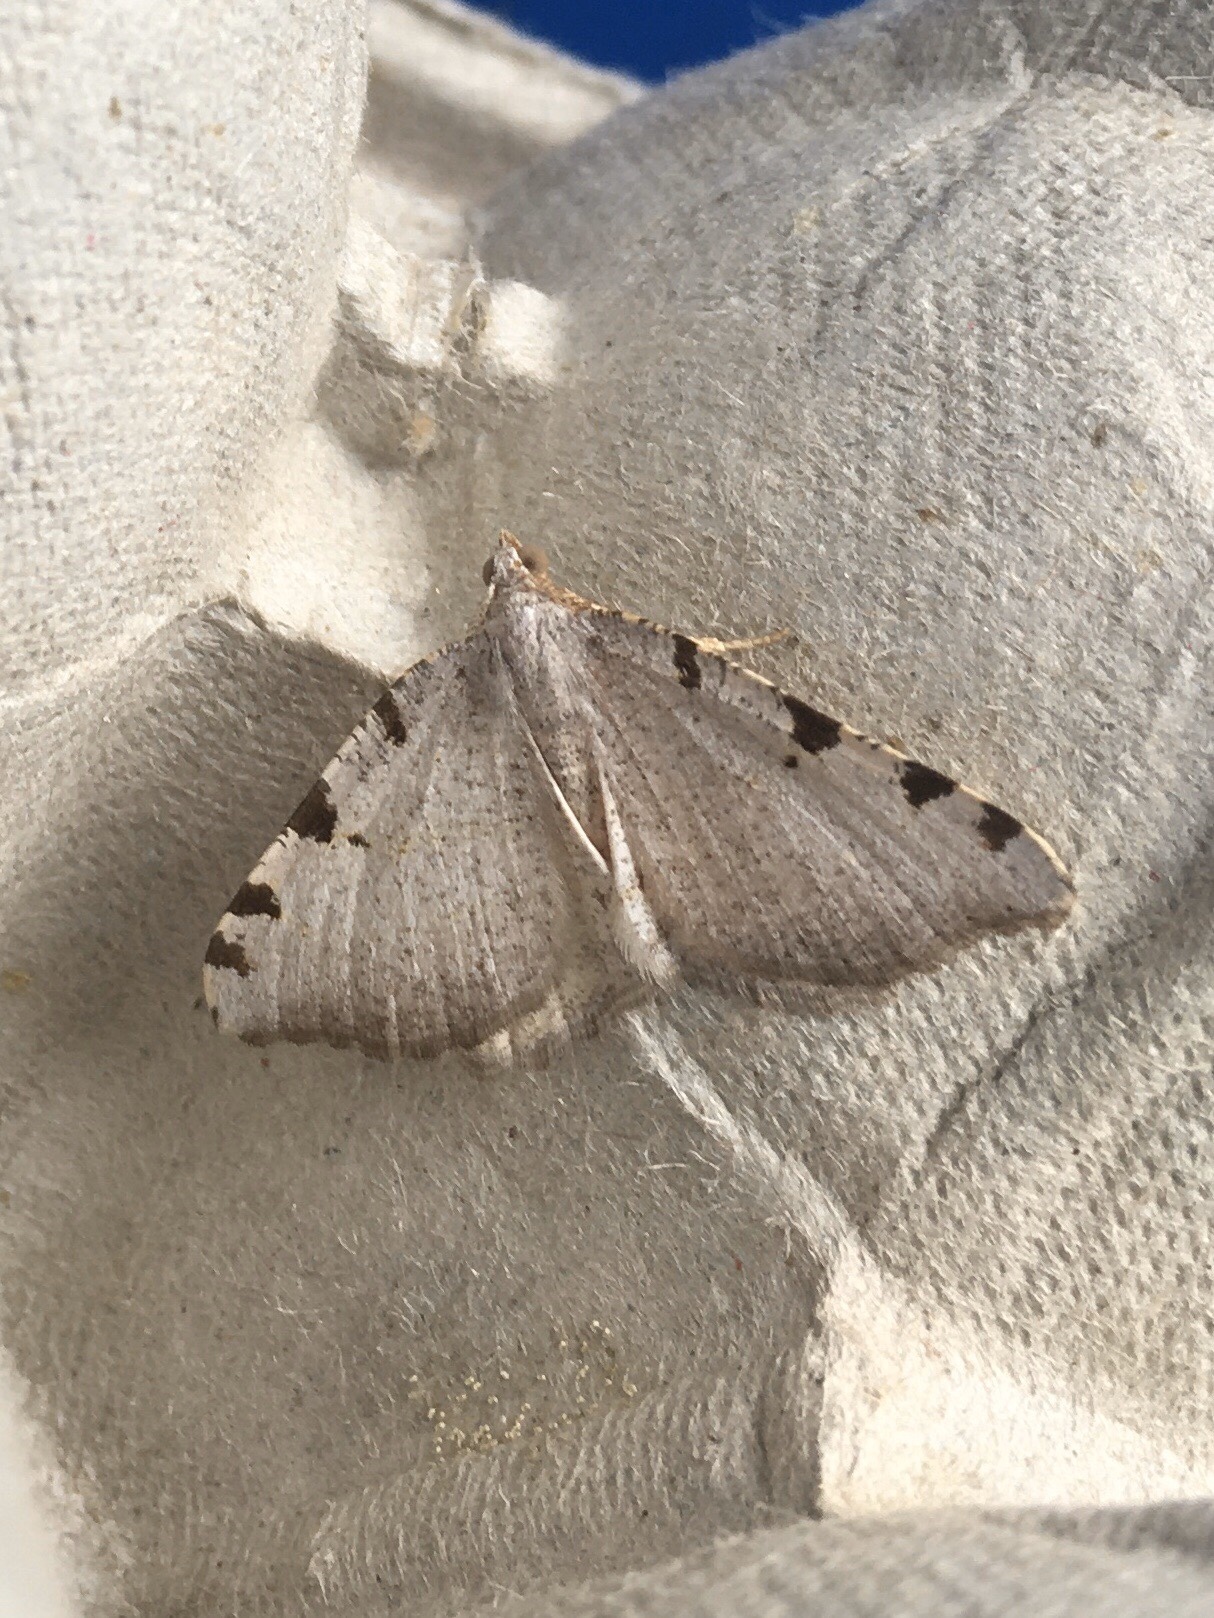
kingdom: Animalia
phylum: Arthropoda
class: Insecta
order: Lepidoptera
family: Geometridae
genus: Macaria
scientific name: Macaria coortaria
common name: Four-spotted granite
